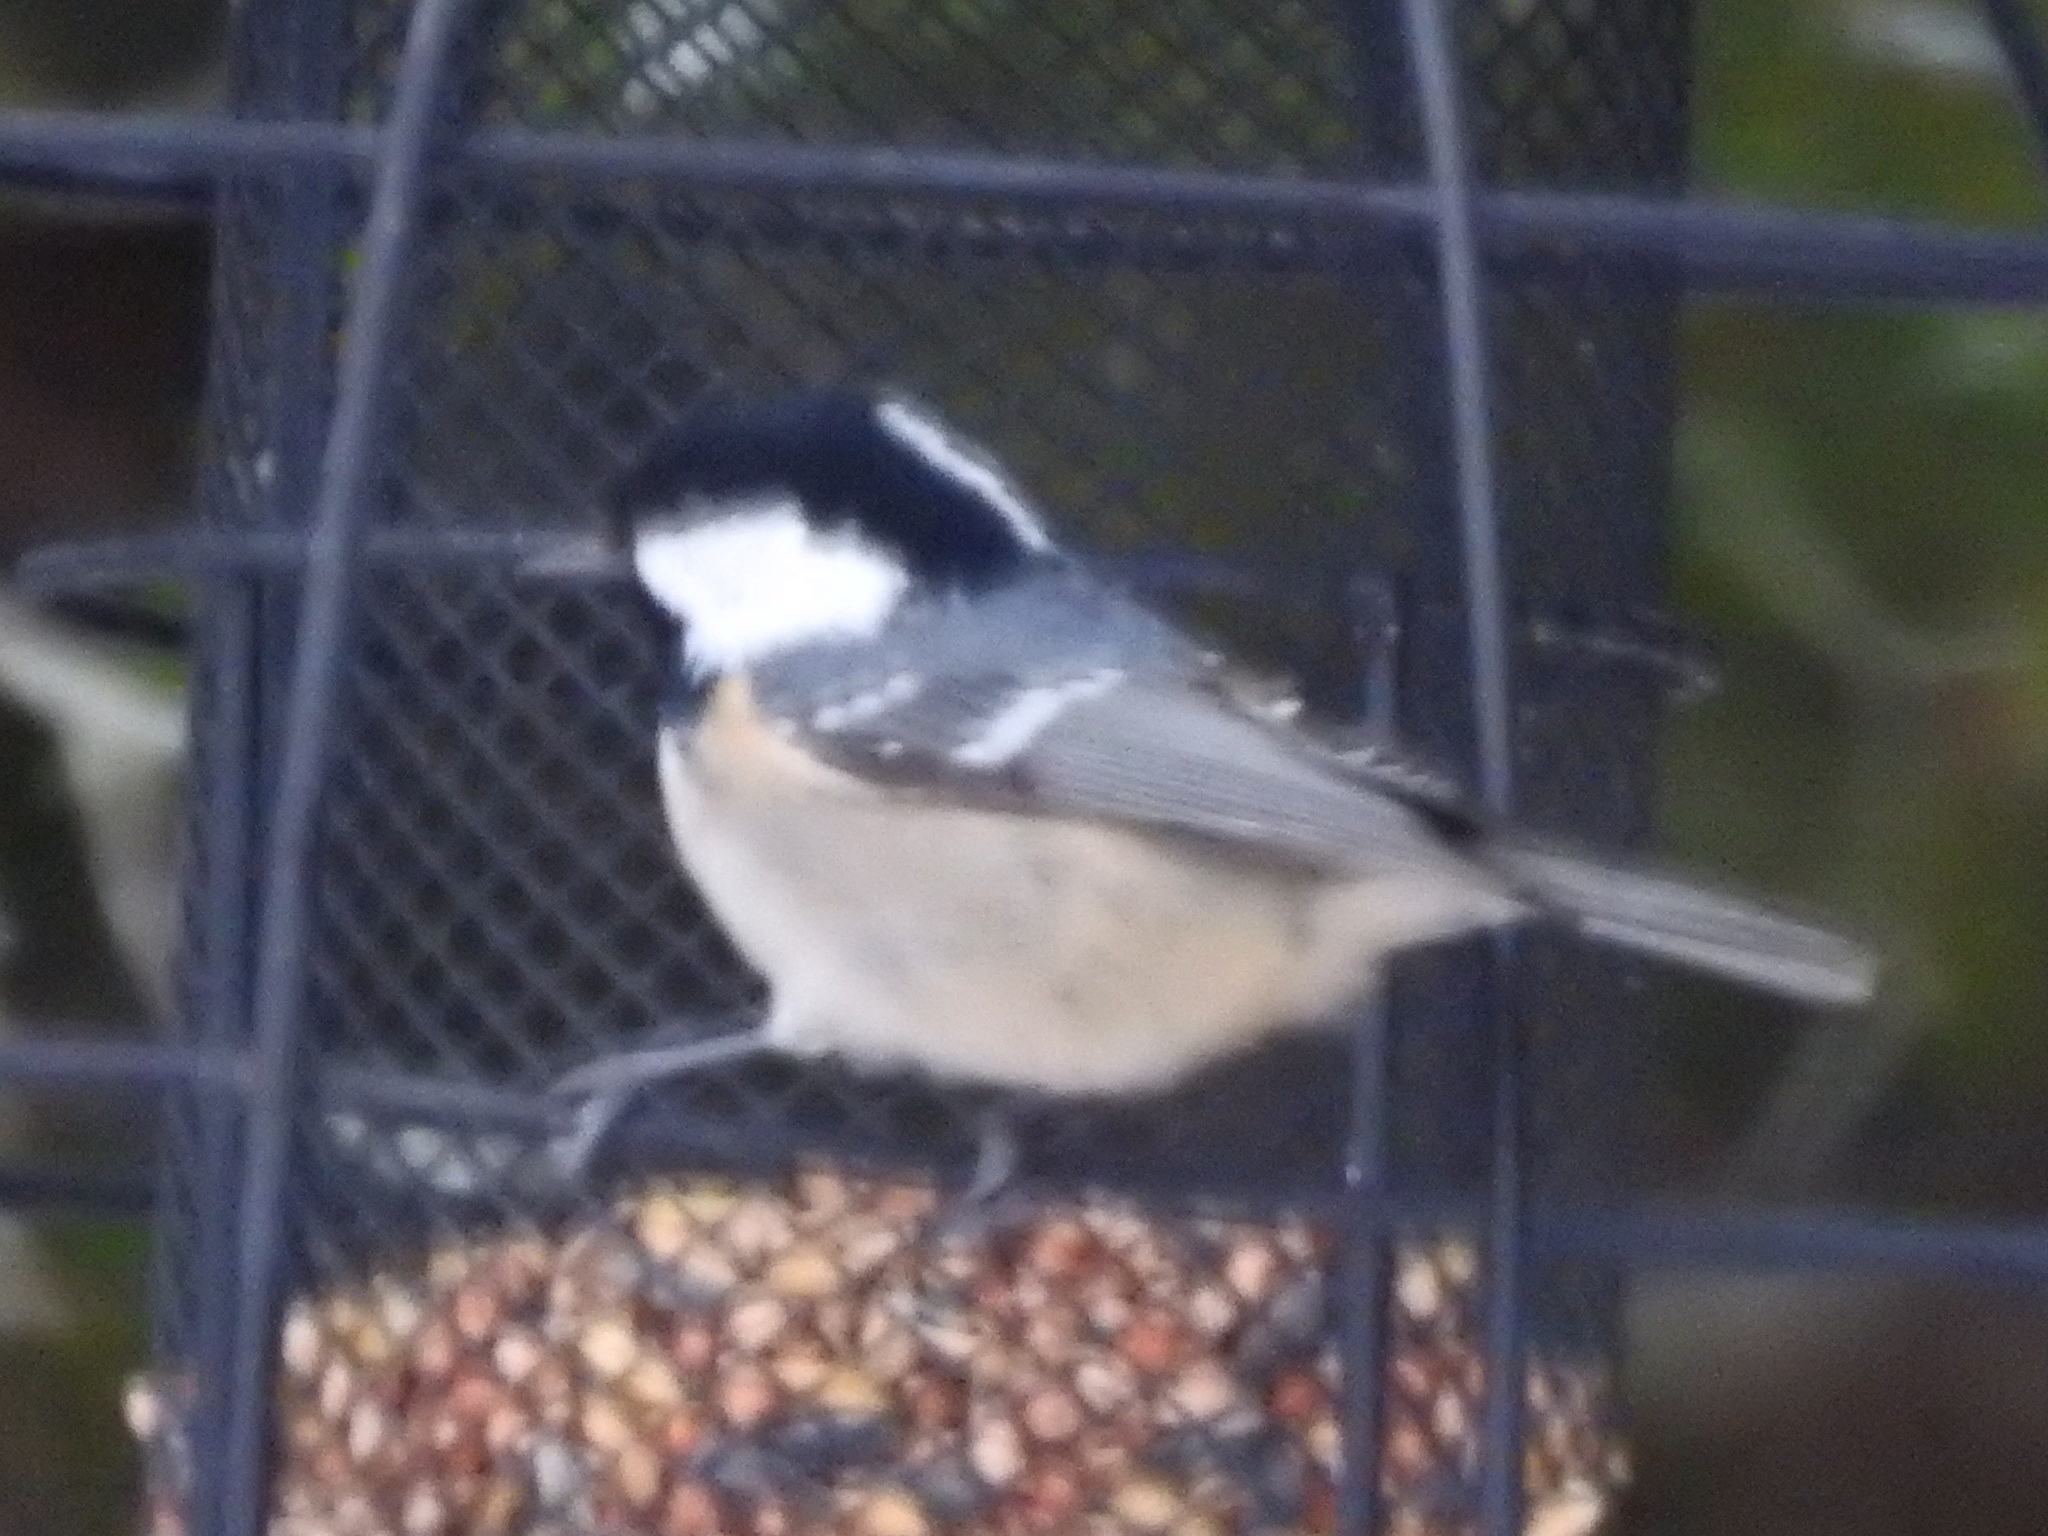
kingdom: Animalia
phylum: Chordata
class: Aves
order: Passeriformes
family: Paridae
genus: Periparus
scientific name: Periparus ater
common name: Coal tit
